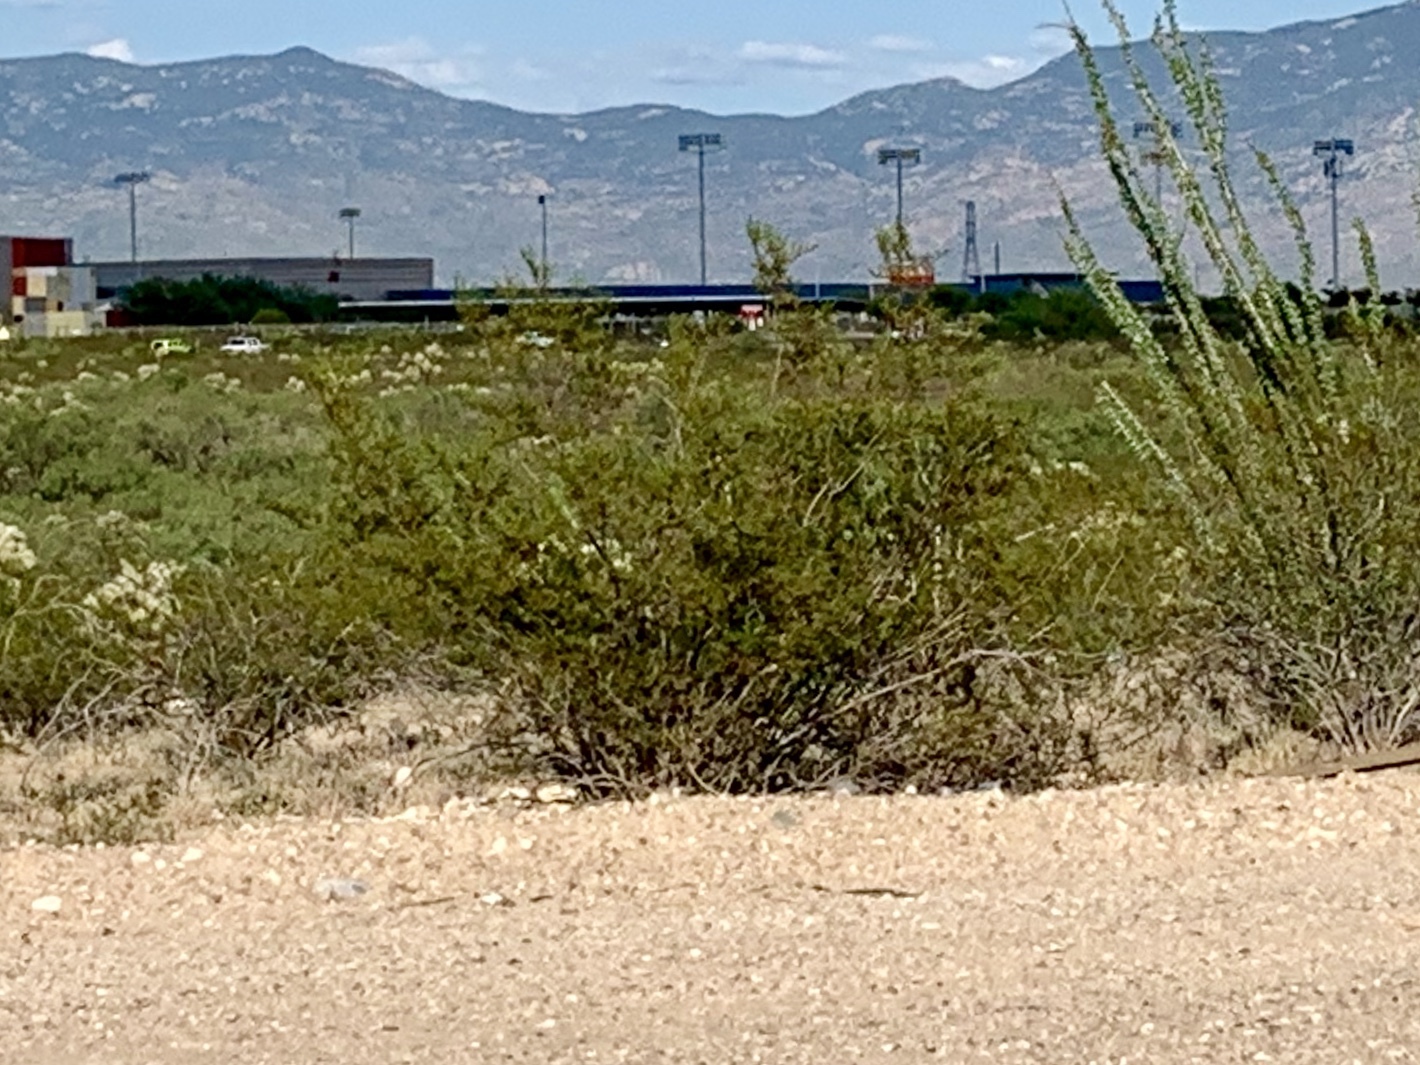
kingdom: Plantae
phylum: Tracheophyta
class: Magnoliopsida
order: Zygophyllales
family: Zygophyllaceae
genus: Larrea
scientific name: Larrea tridentata
